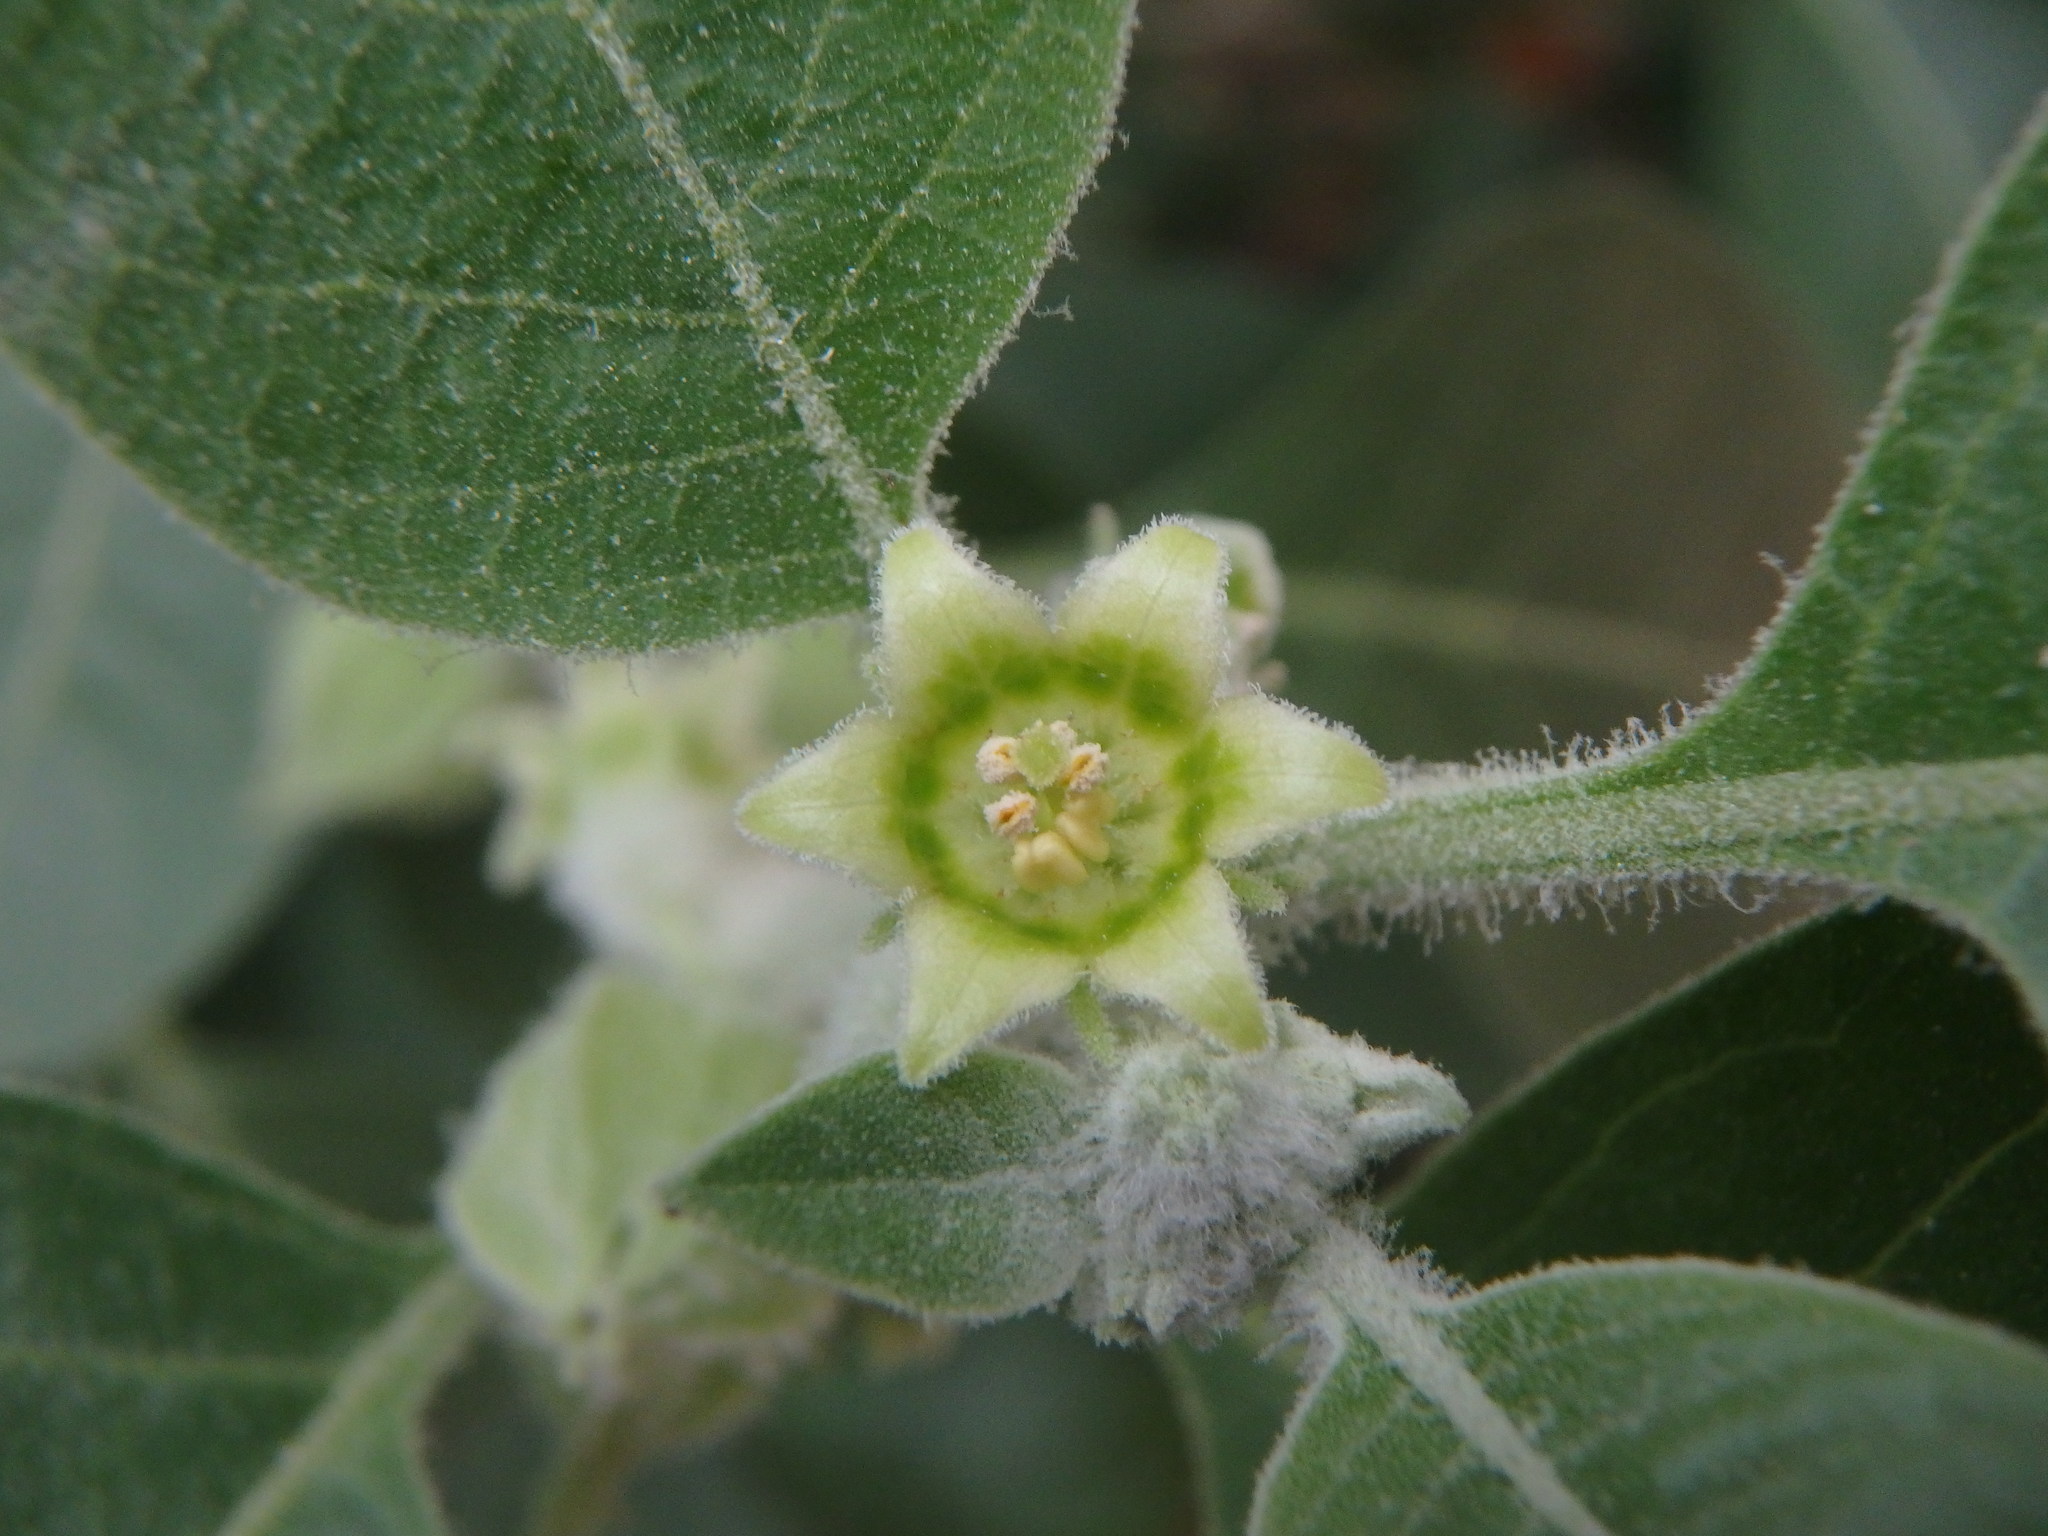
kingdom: Plantae
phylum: Tracheophyta
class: Magnoliopsida
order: Solanales
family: Solanaceae
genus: Withania
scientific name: Withania somnifera
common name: Winter-cherry
